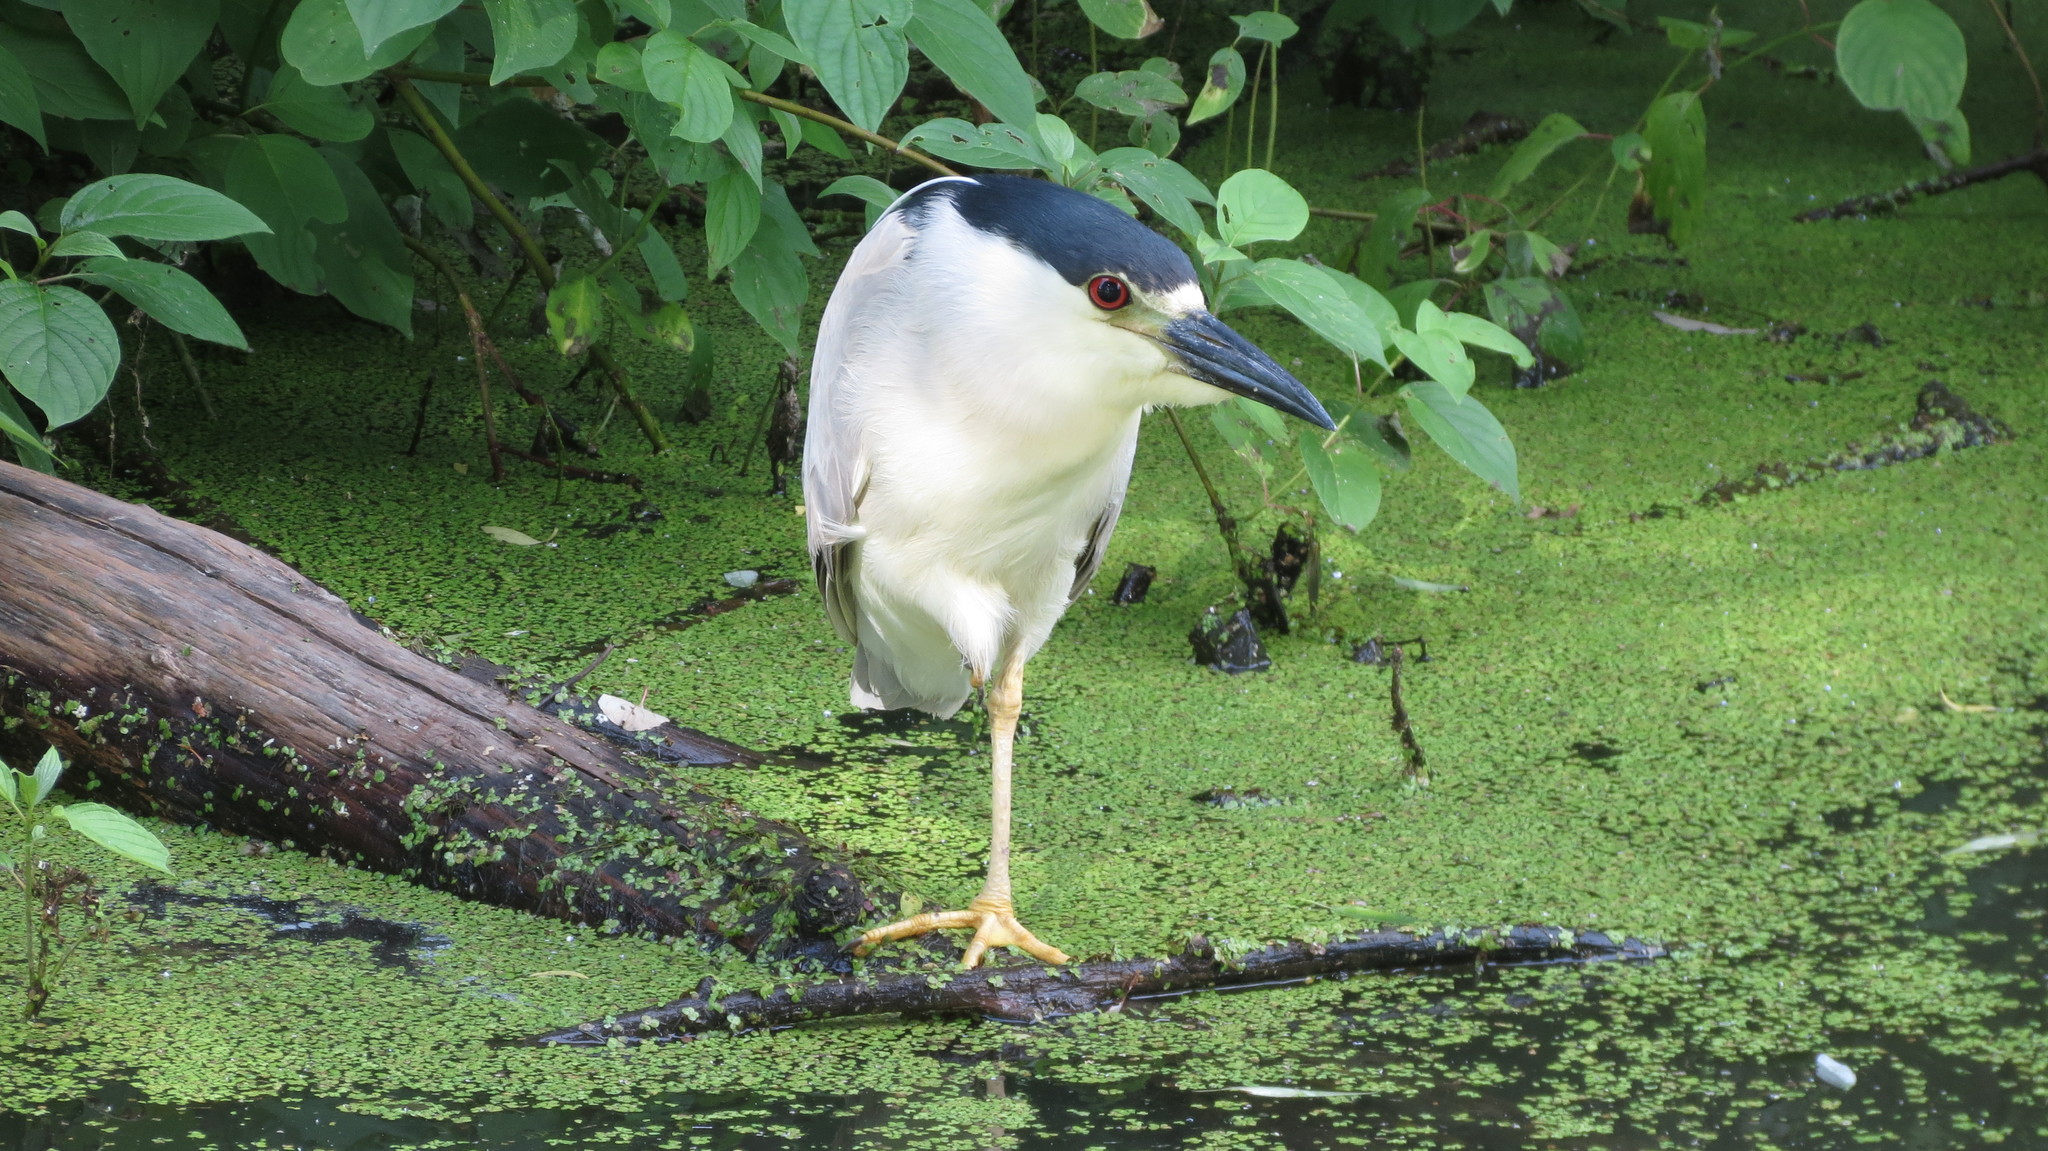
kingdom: Animalia
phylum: Chordata
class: Aves
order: Pelecaniformes
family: Ardeidae
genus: Nycticorax
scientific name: Nycticorax nycticorax
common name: Black-crowned night heron
